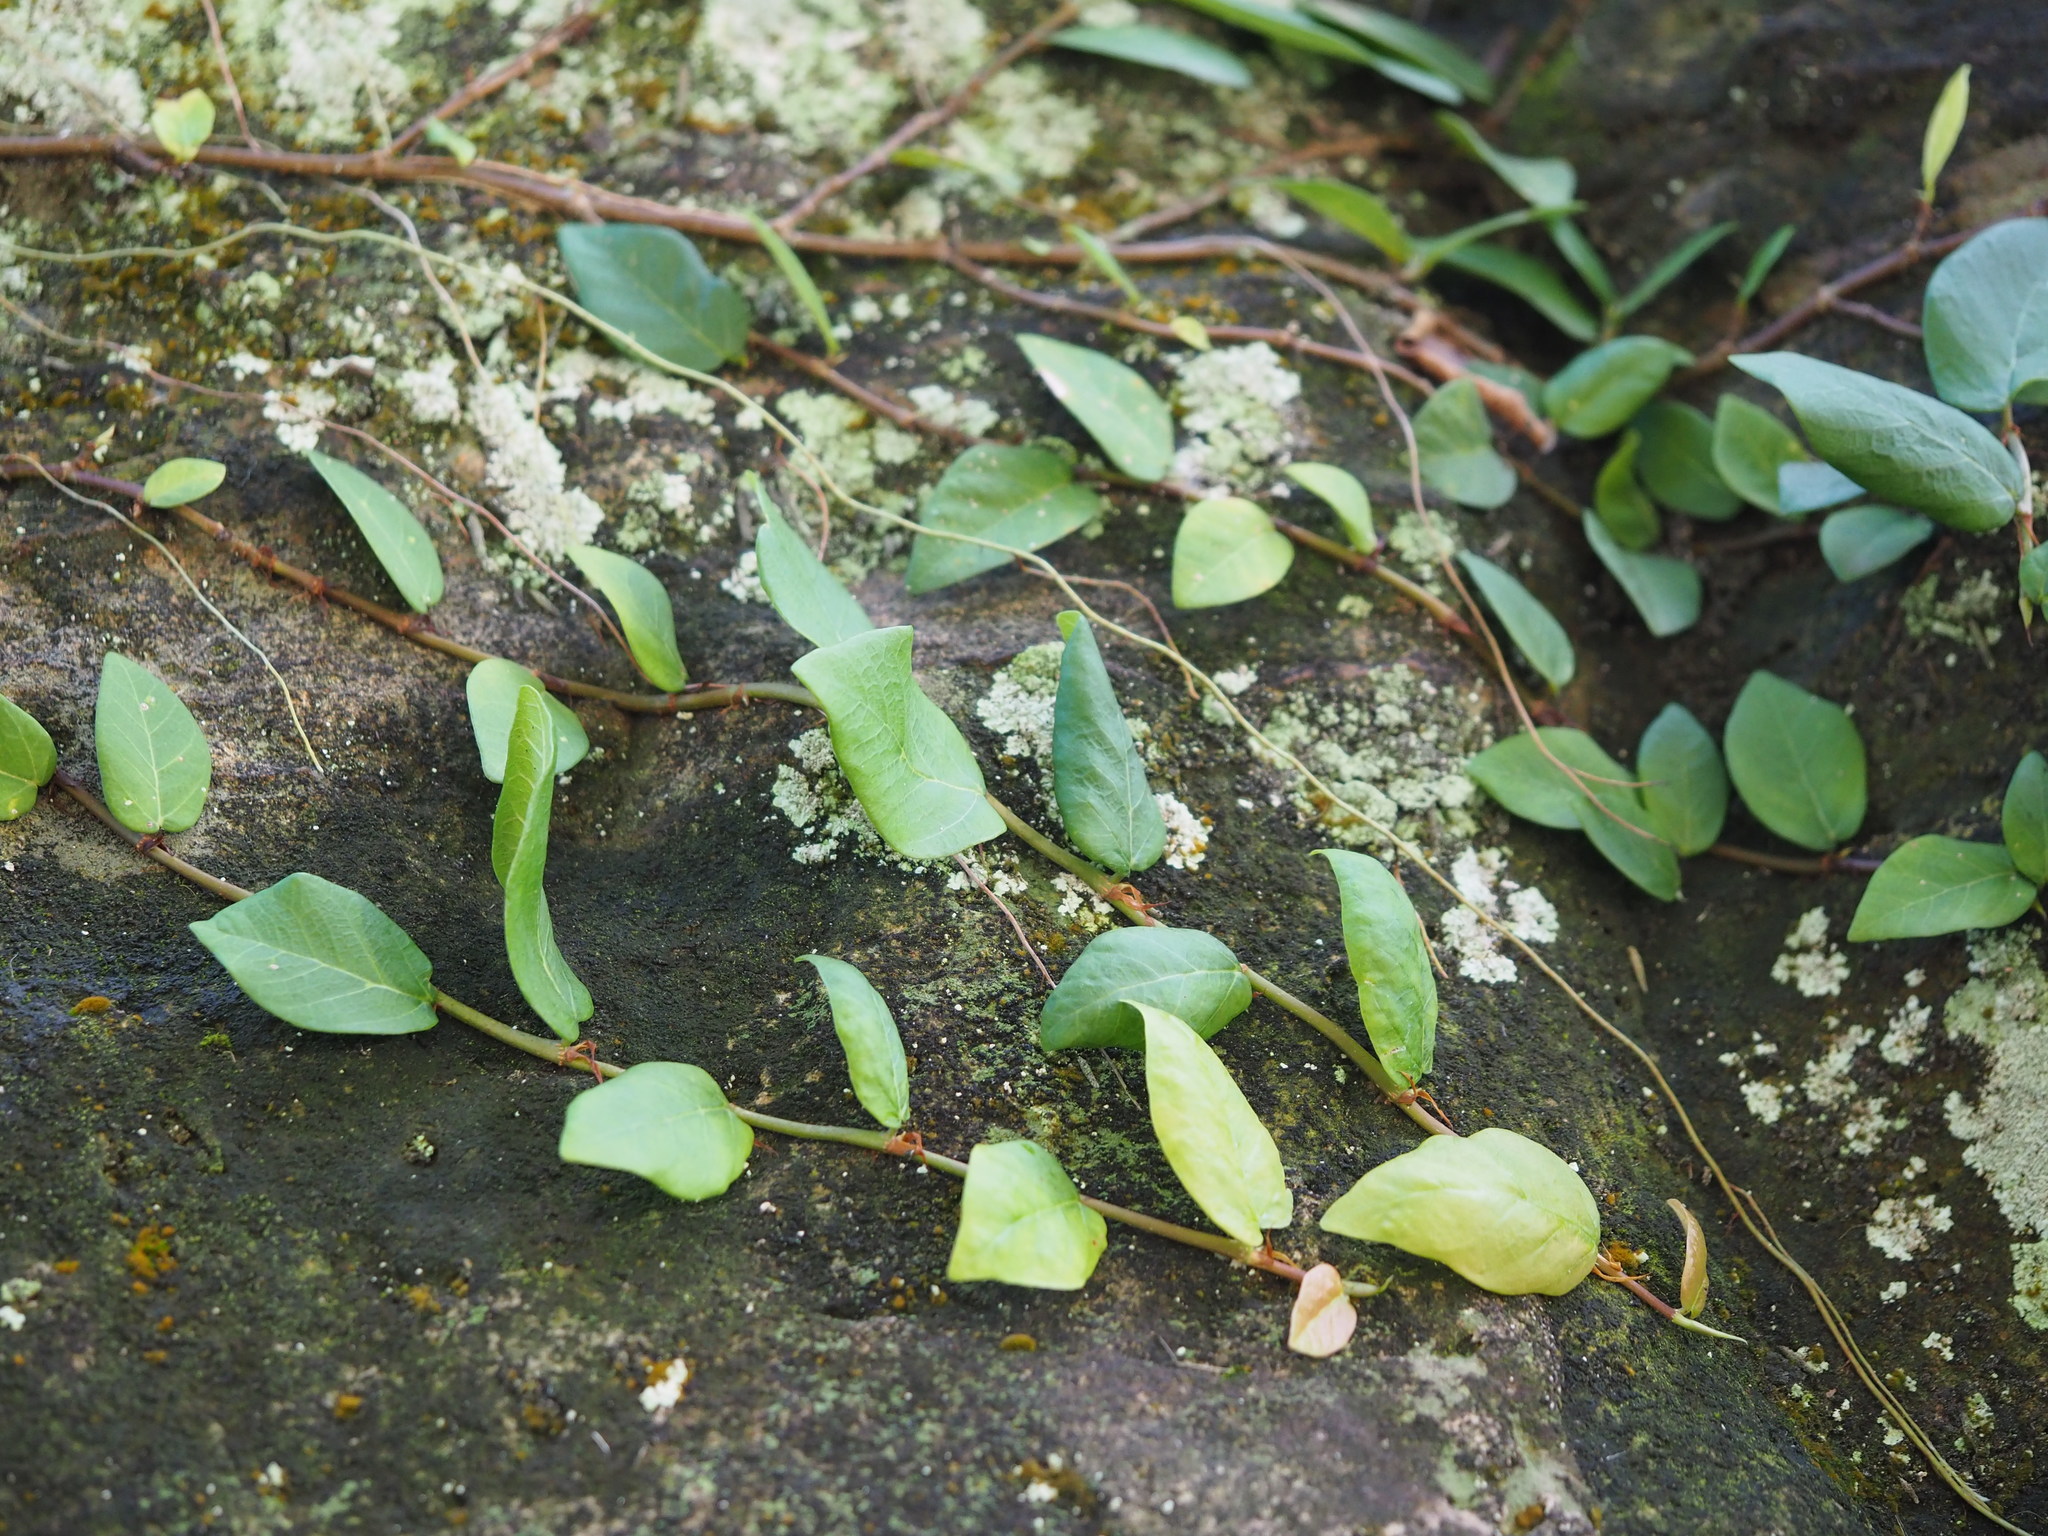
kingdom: Plantae
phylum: Tracheophyta
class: Magnoliopsida
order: Rosales
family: Moraceae
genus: Ficus
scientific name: Ficus pumila
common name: Climbingfig
